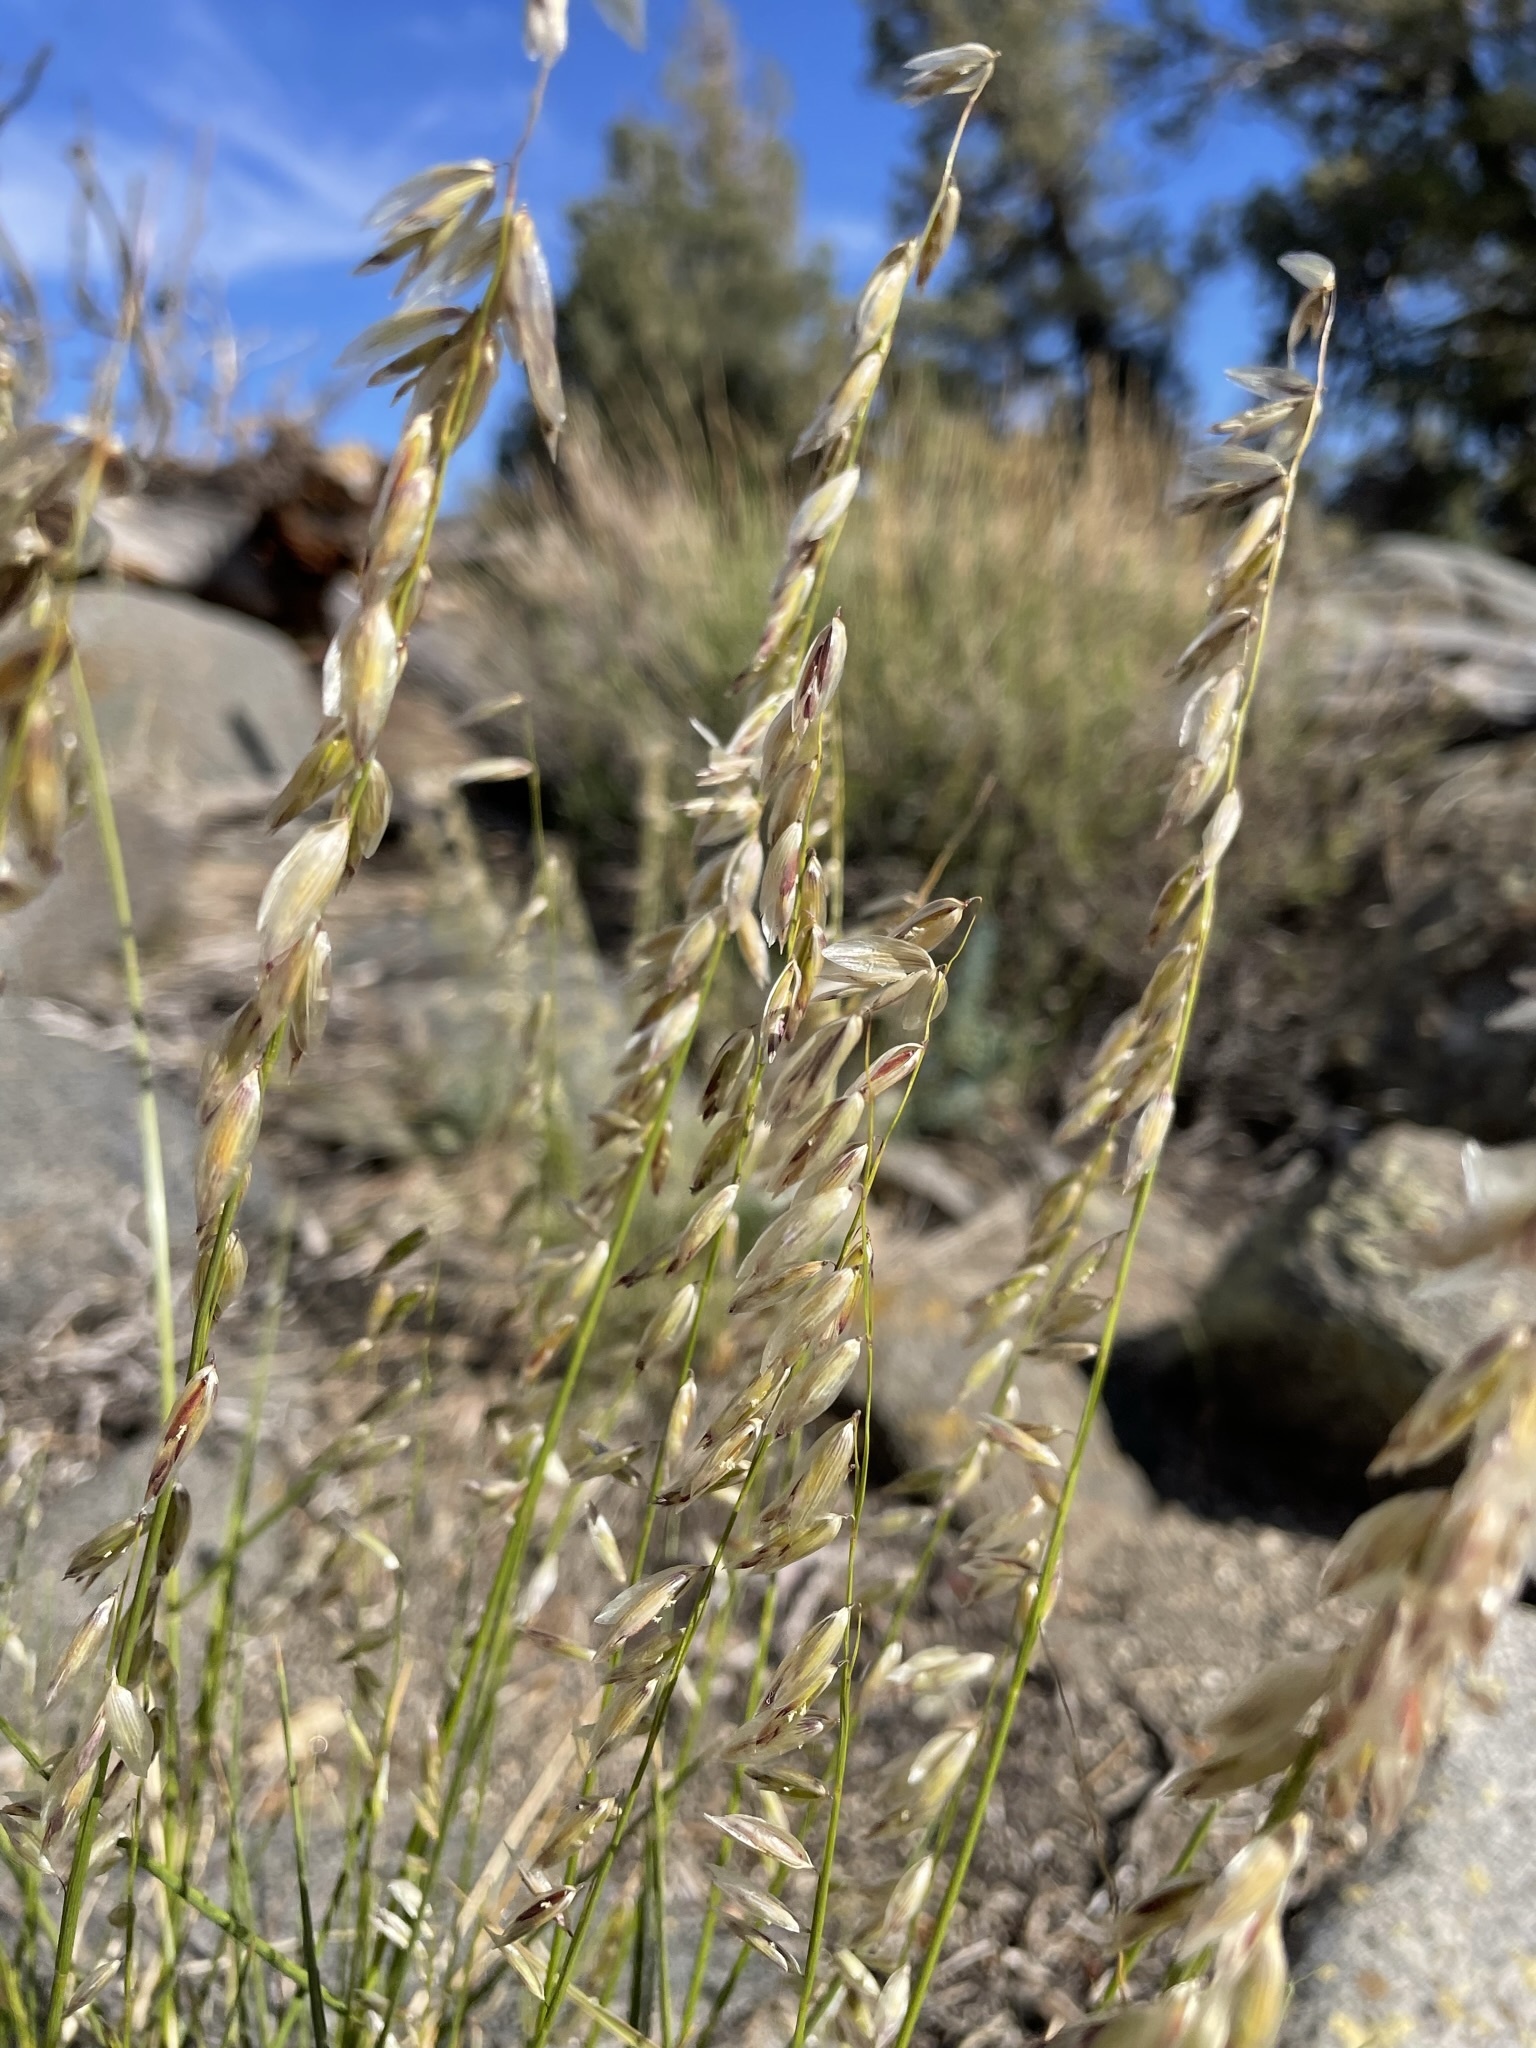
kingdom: Plantae
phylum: Tracheophyta
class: Liliopsida
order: Poales
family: Poaceae
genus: Melica
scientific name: Melica stricta
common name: Rock melic
